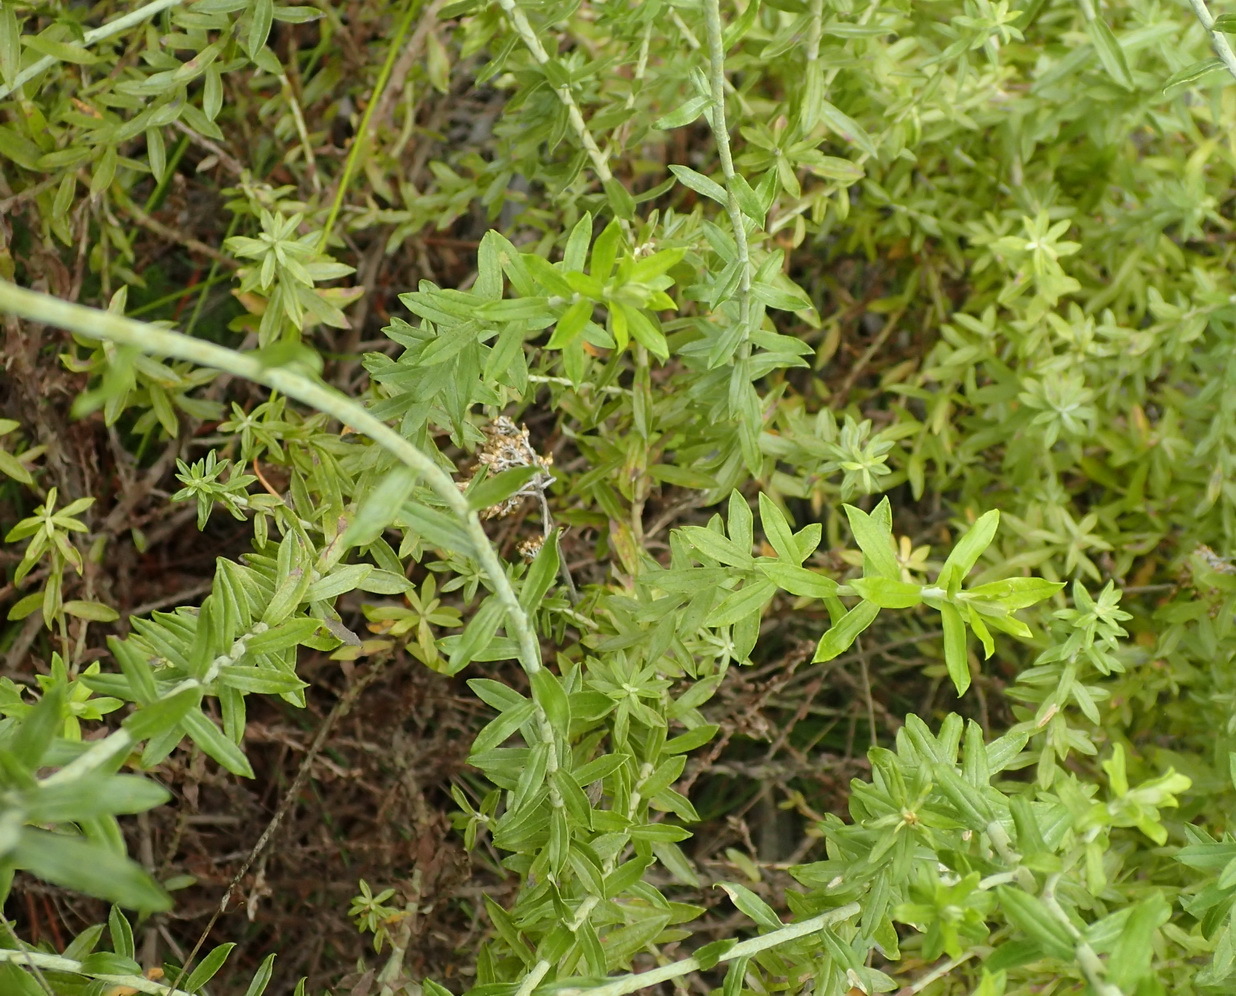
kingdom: Plantae
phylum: Tracheophyta
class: Magnoliopsida
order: Asterales
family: Asteraceae
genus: Helichrysum
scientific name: Helichrysum cymosum
